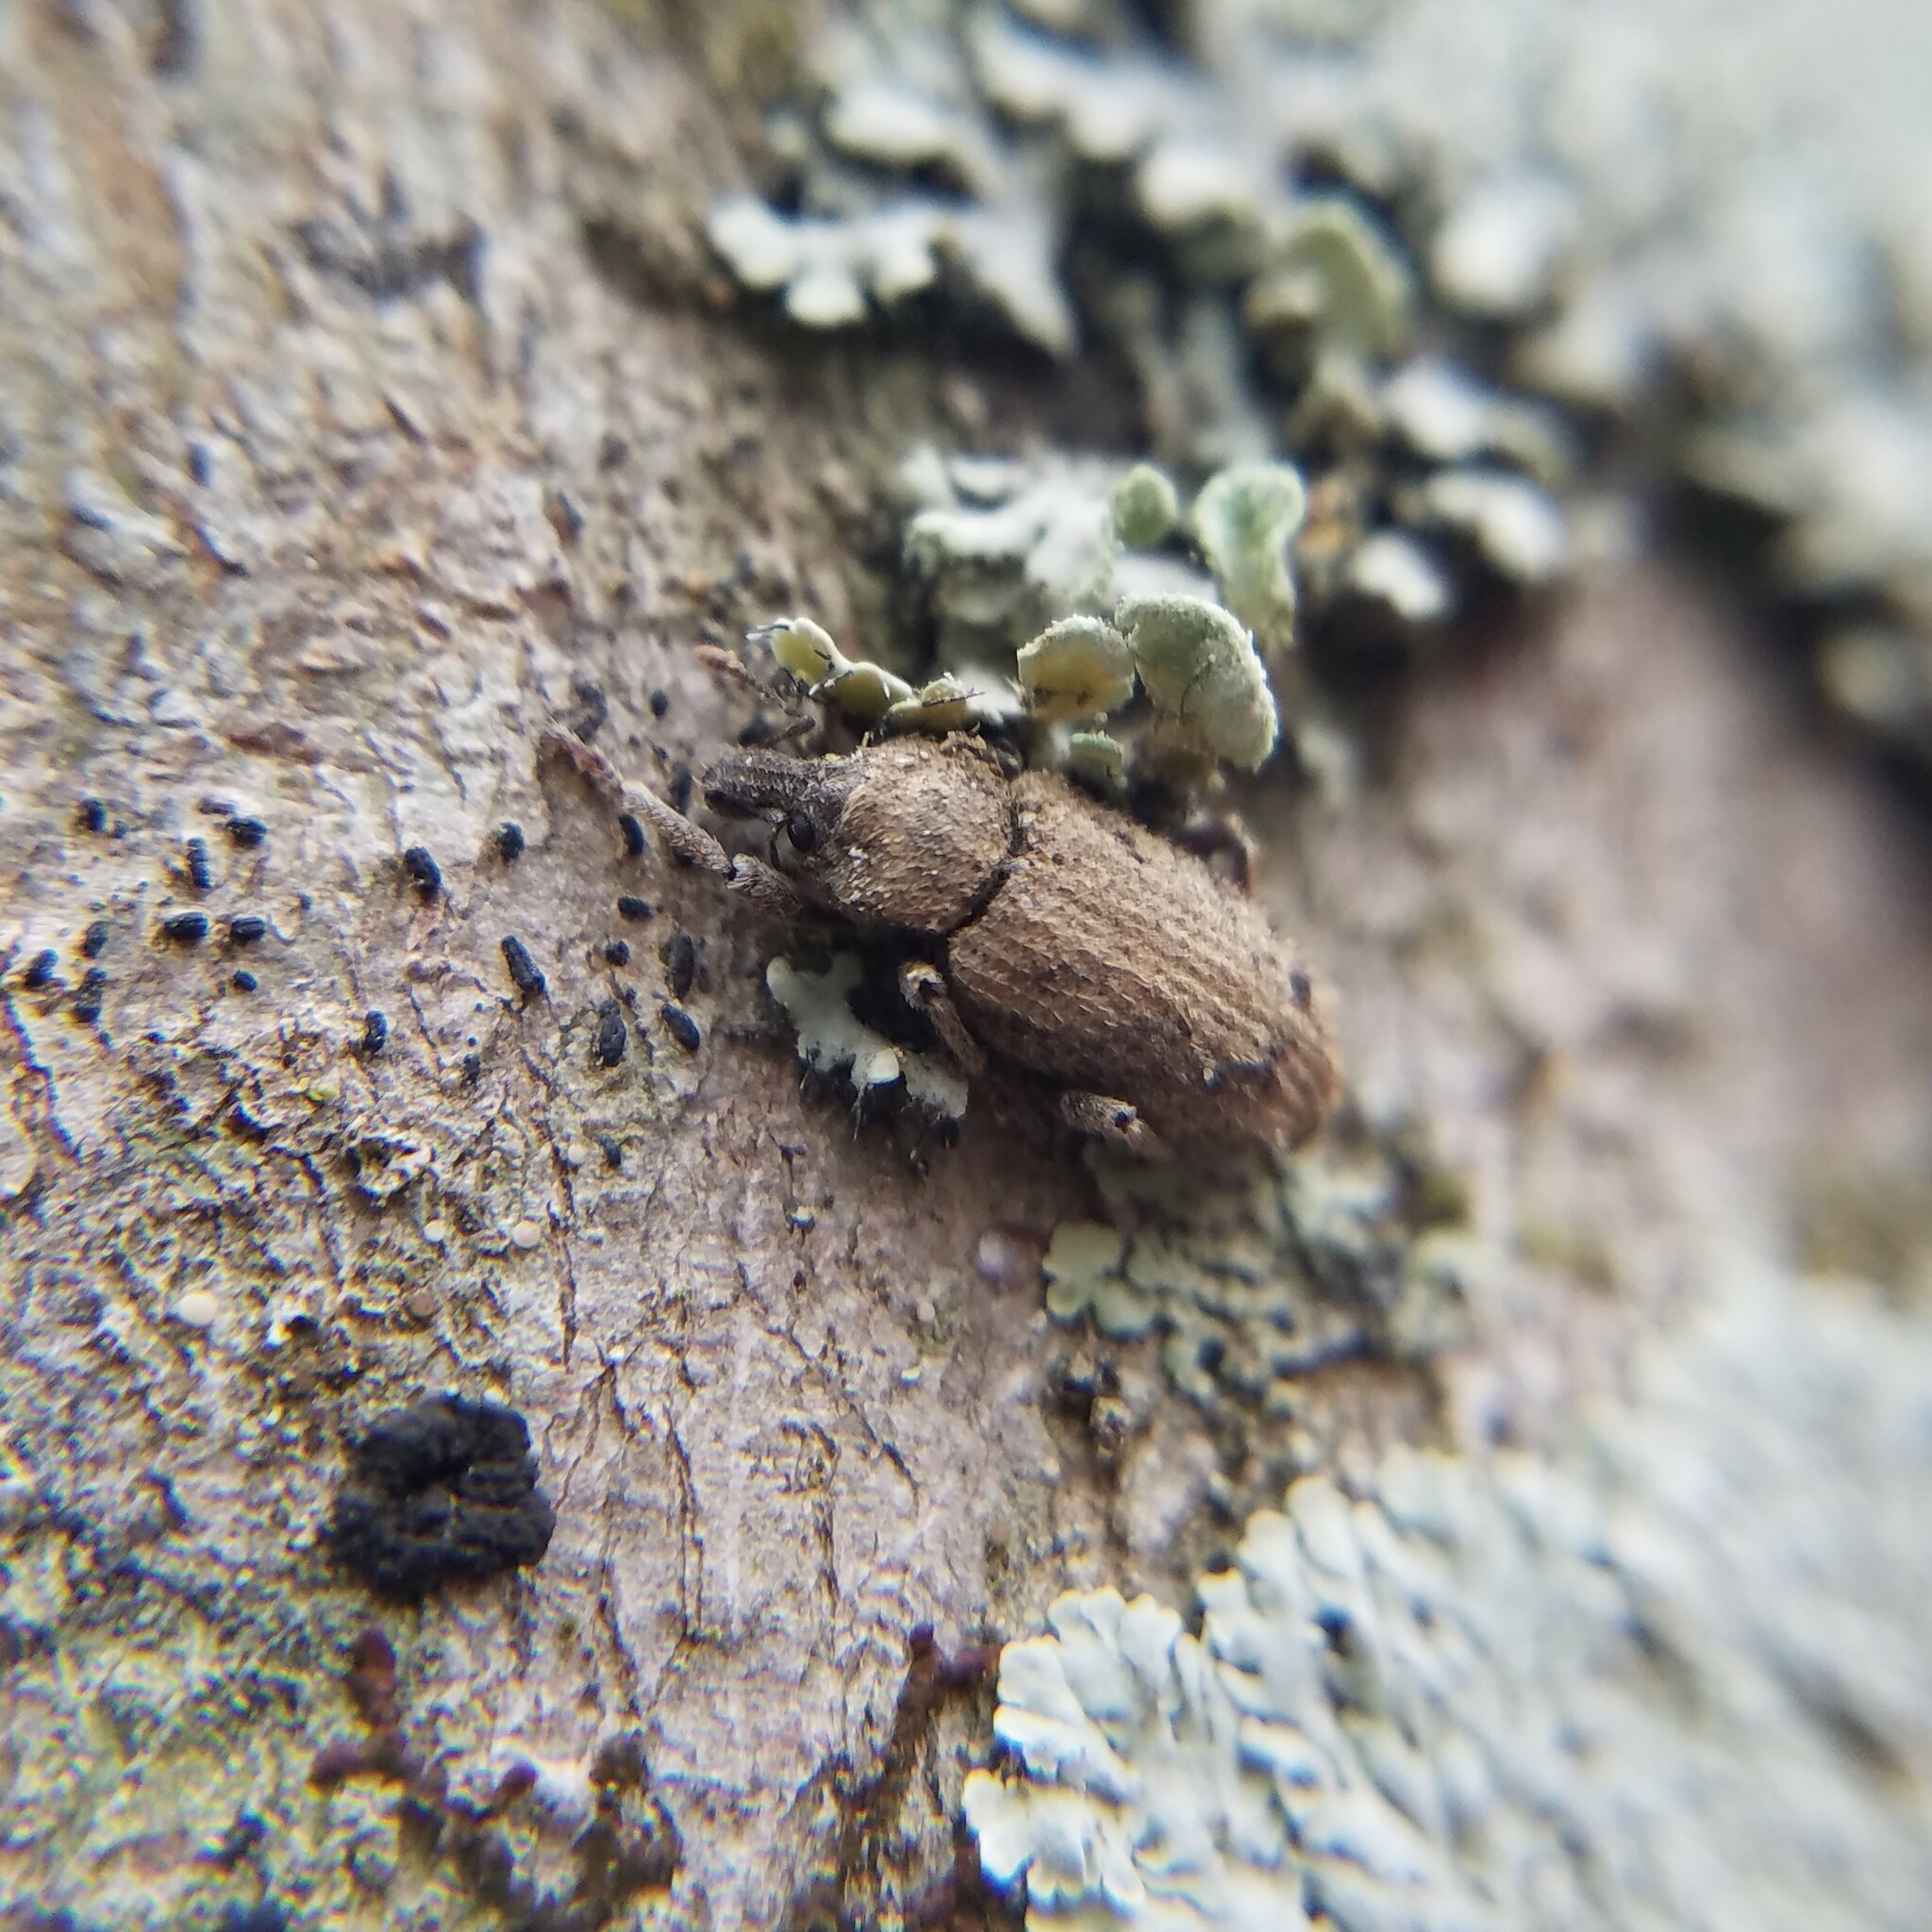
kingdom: Animalia
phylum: Arthropoda
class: Insecta
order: Coleoptera
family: Curculionidae
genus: Listroderes
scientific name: Listroderes costirostris
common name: Weevil
